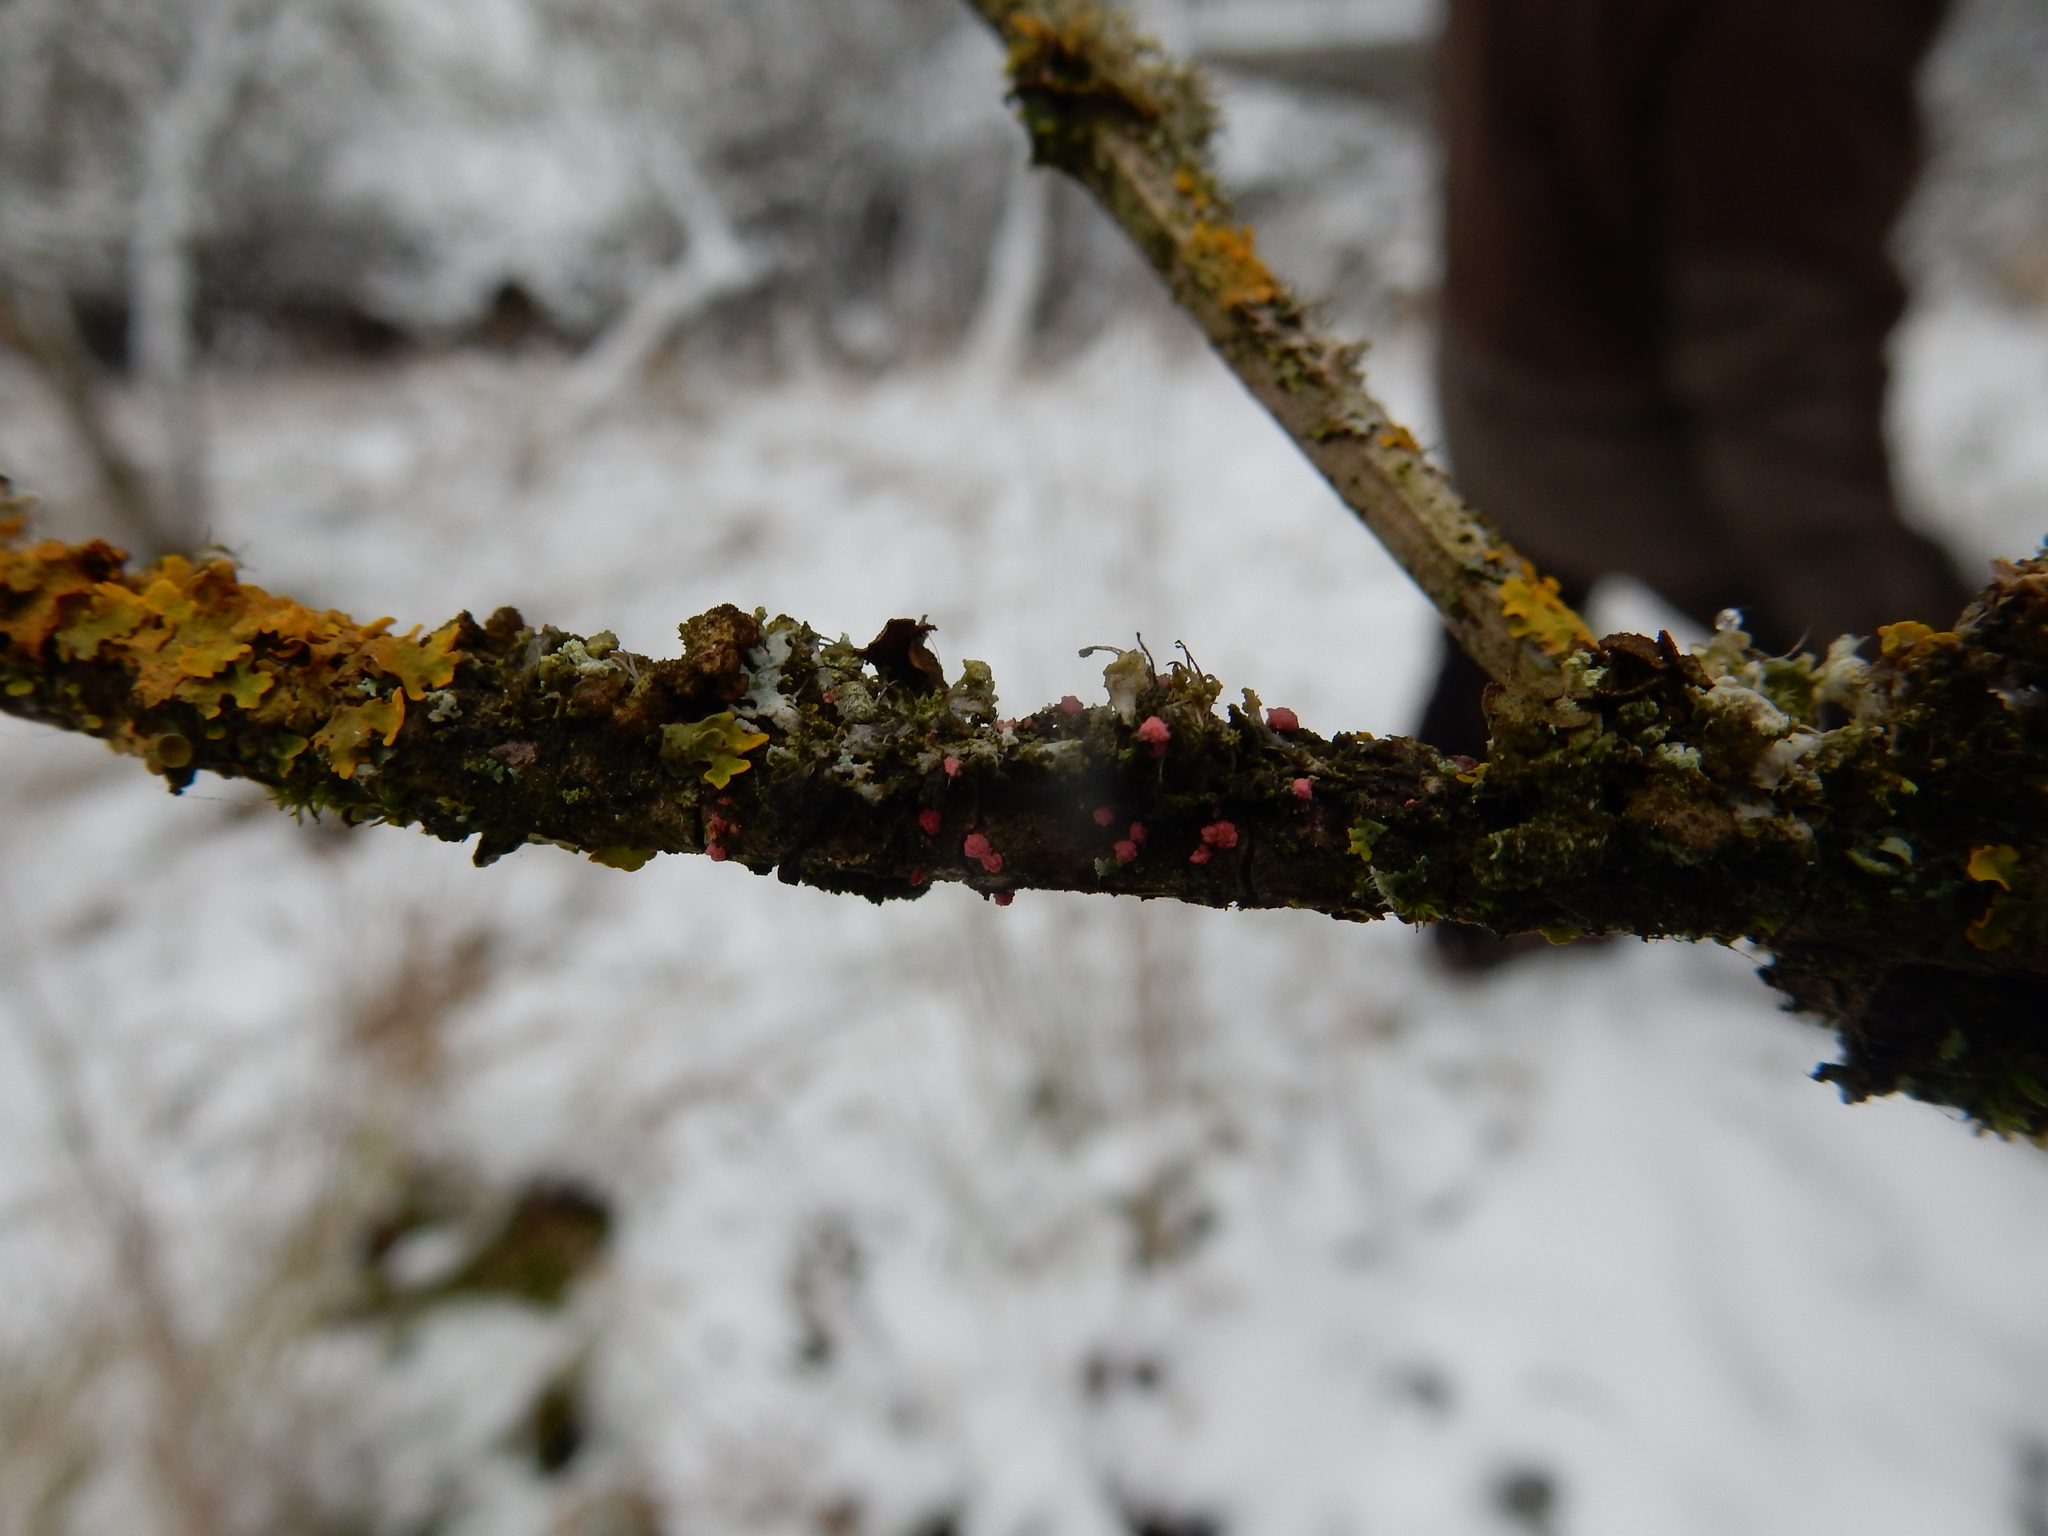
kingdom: Fungi
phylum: Ascomycota
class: Sordariomycetes
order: Hypocreales
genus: Illosporiopsis
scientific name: Illosporiopsis christiansenii
